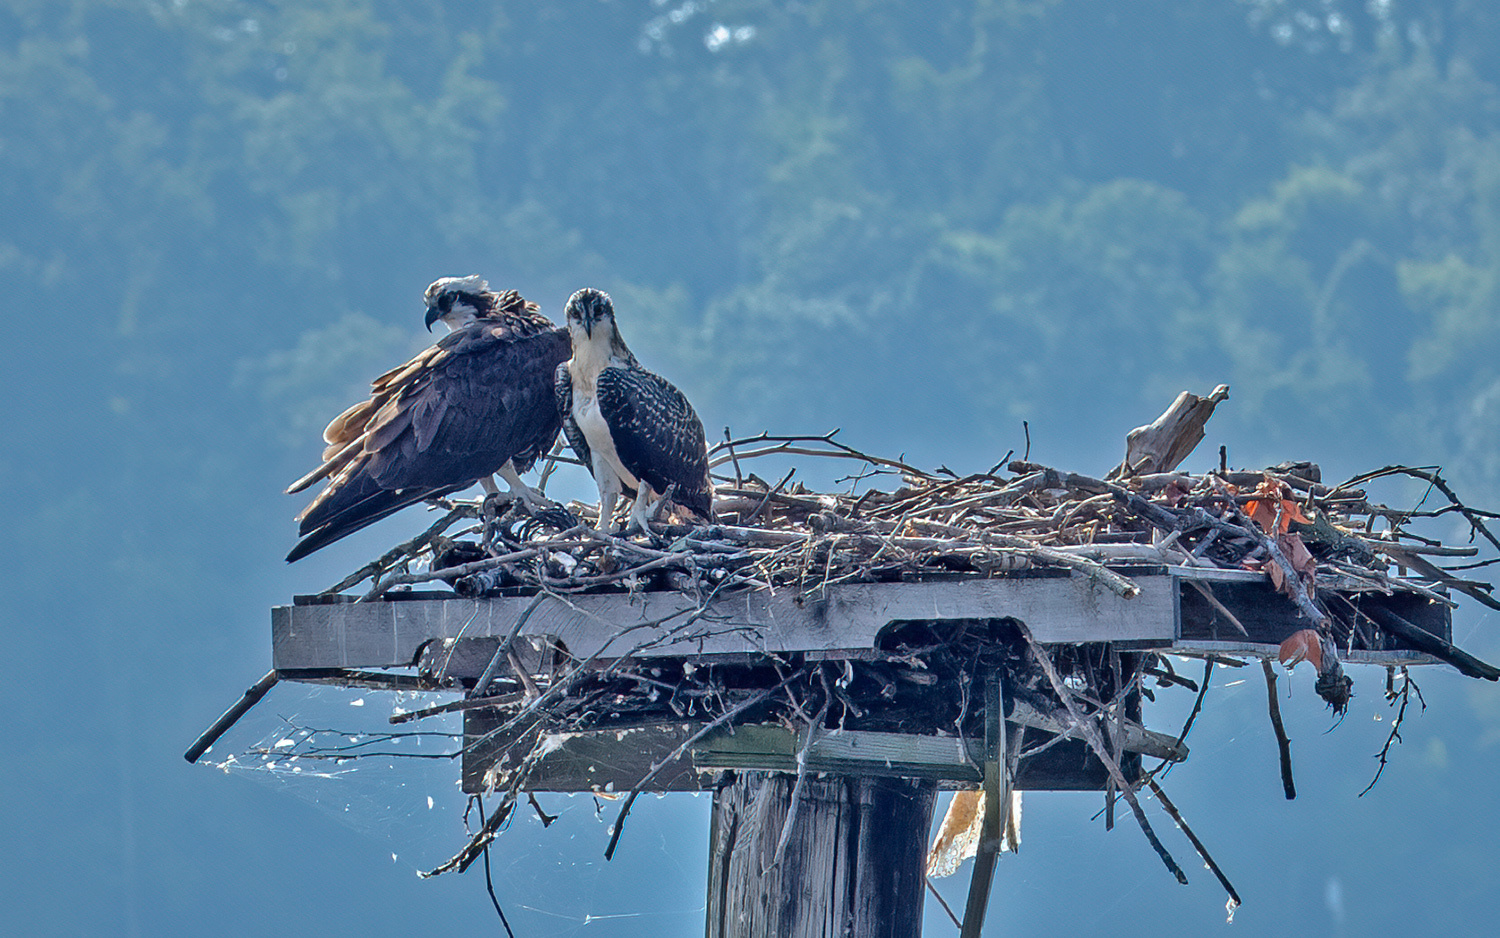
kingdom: Animalia
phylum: Chordata
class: Aves
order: Accipitriformes
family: Pandionidae
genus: Pandion
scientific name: Pandion haliaetus
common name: Osprey
